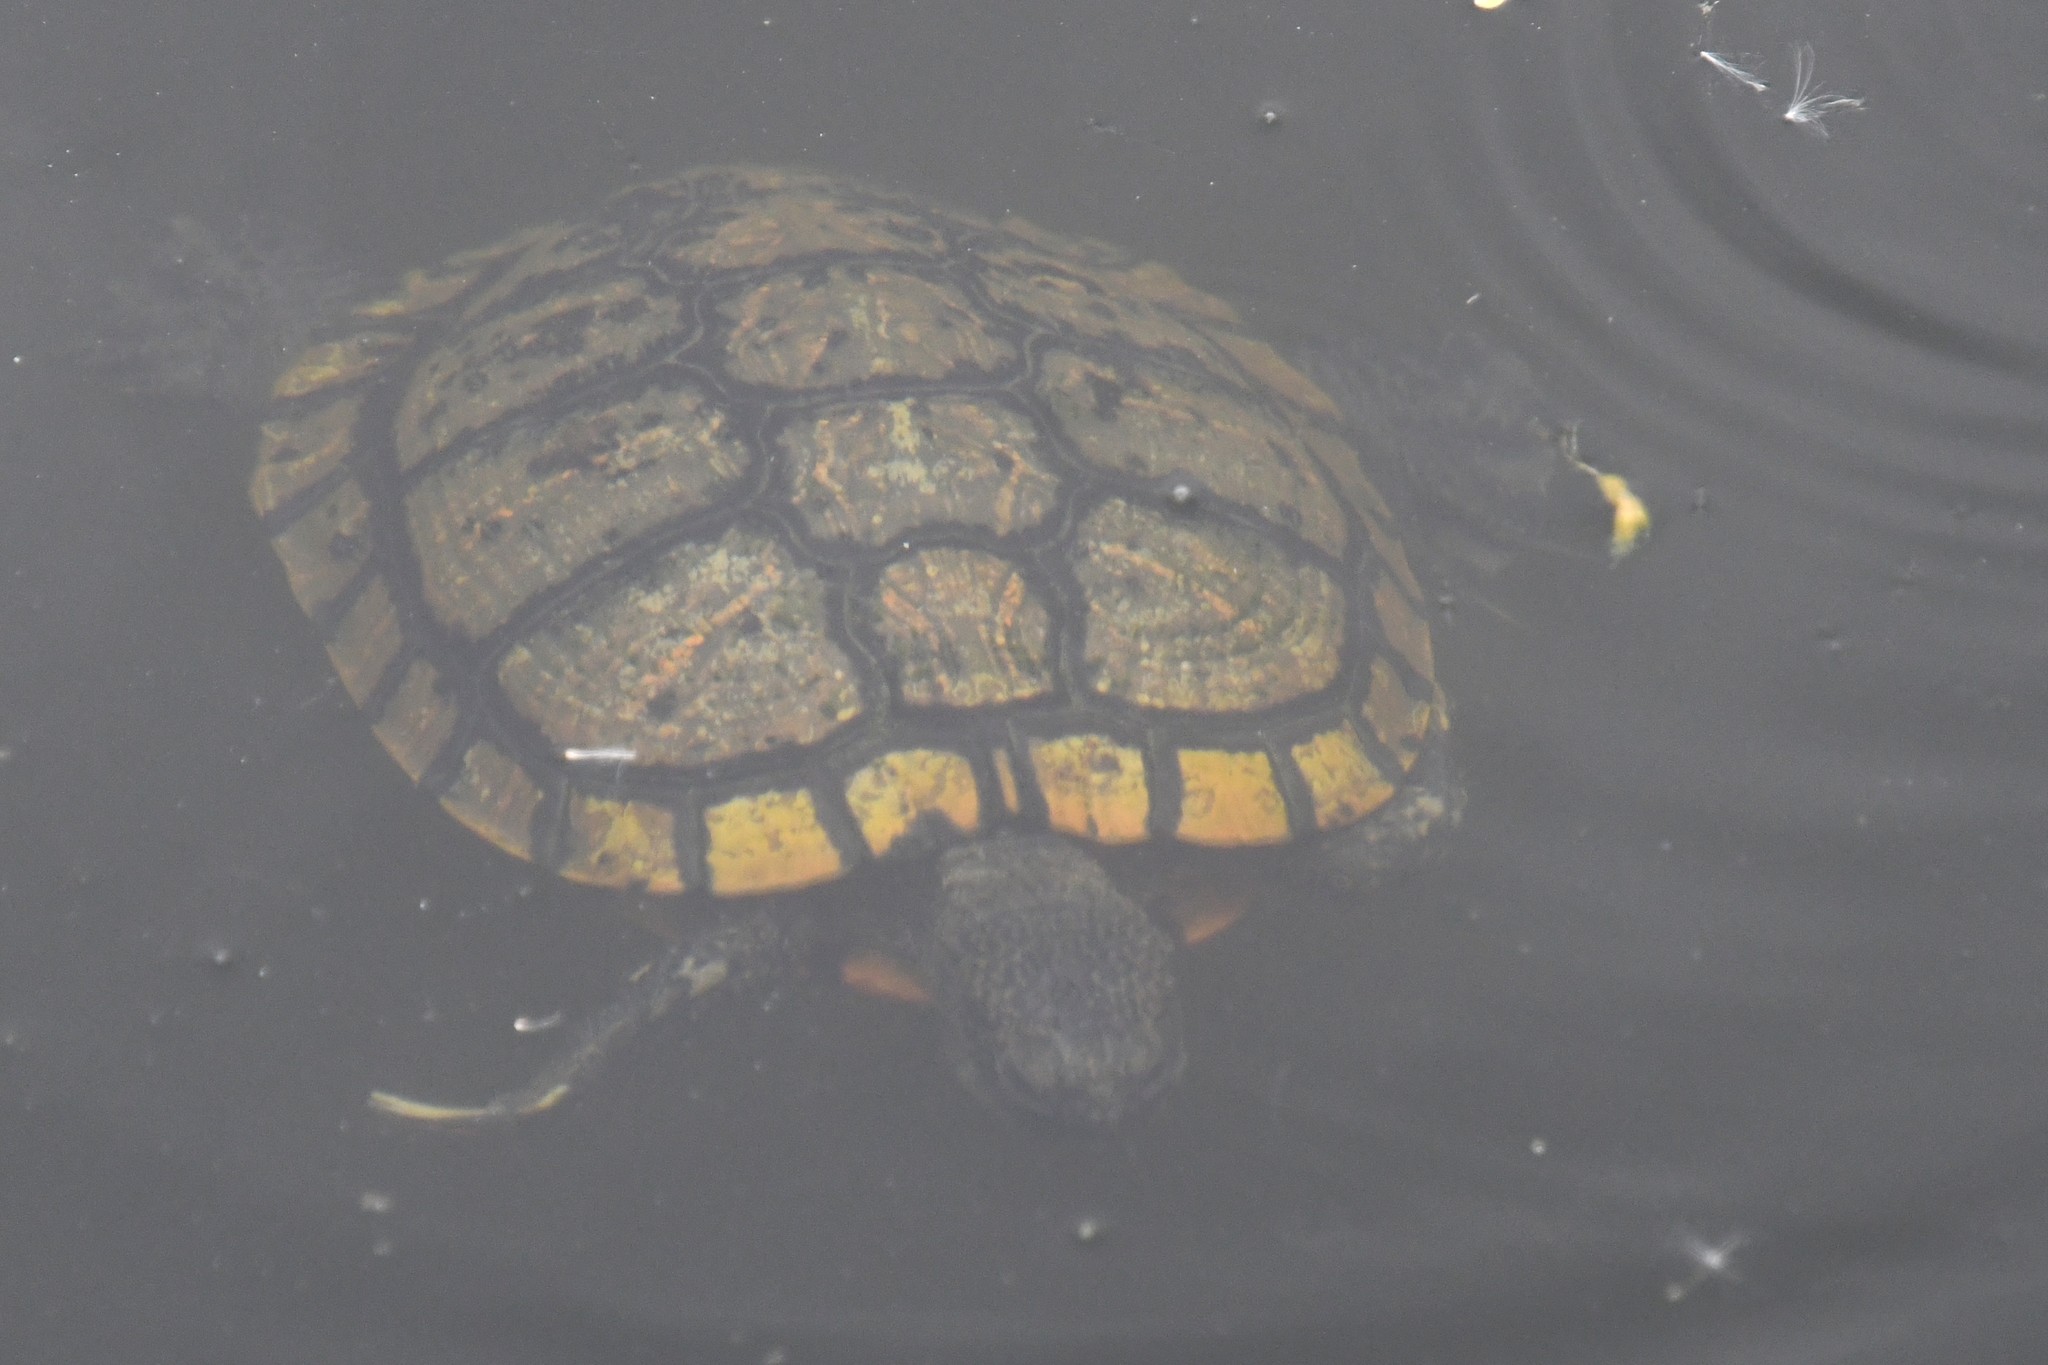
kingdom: Animalia
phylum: Chordata
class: Testudines
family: Emydidae
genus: Trachemys
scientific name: Trachemys scripta
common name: Slider
